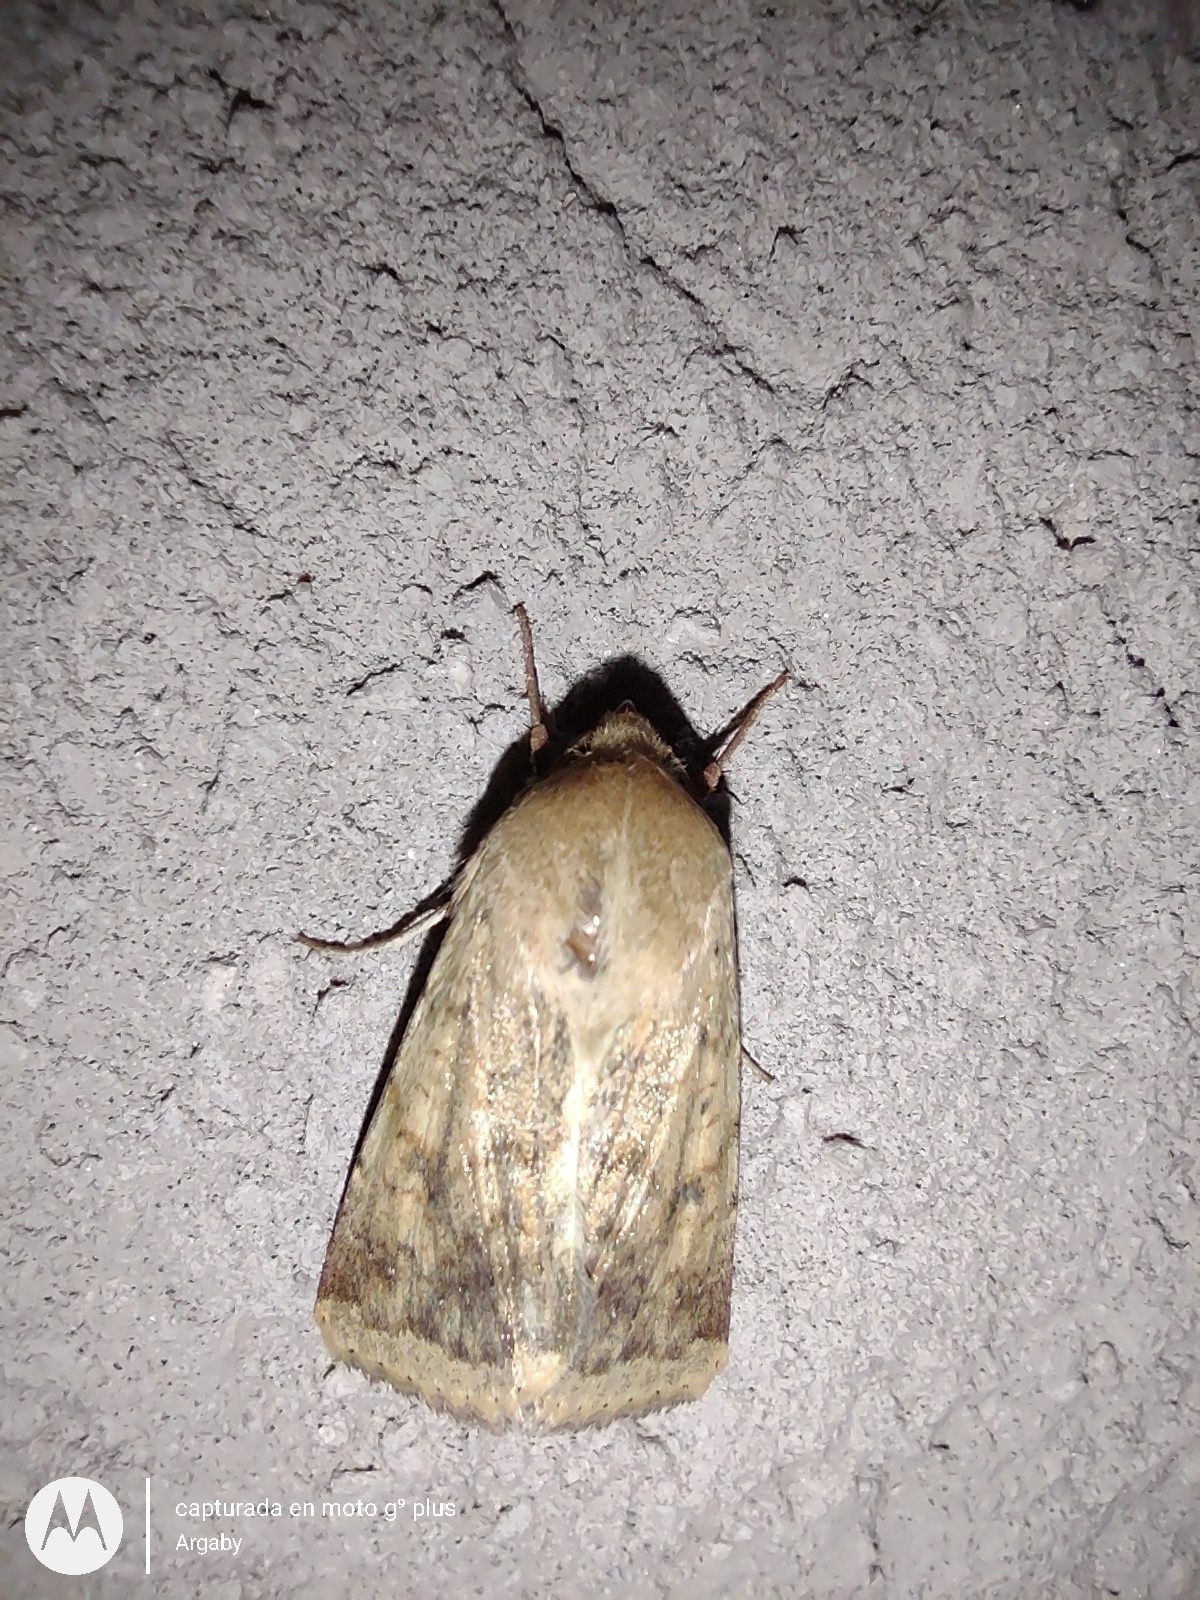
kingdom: Animalia
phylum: Arthropoda
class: Insecta
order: Lepidoptera
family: Noctuidae
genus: Helicoverpa
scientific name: Helicoverpa
